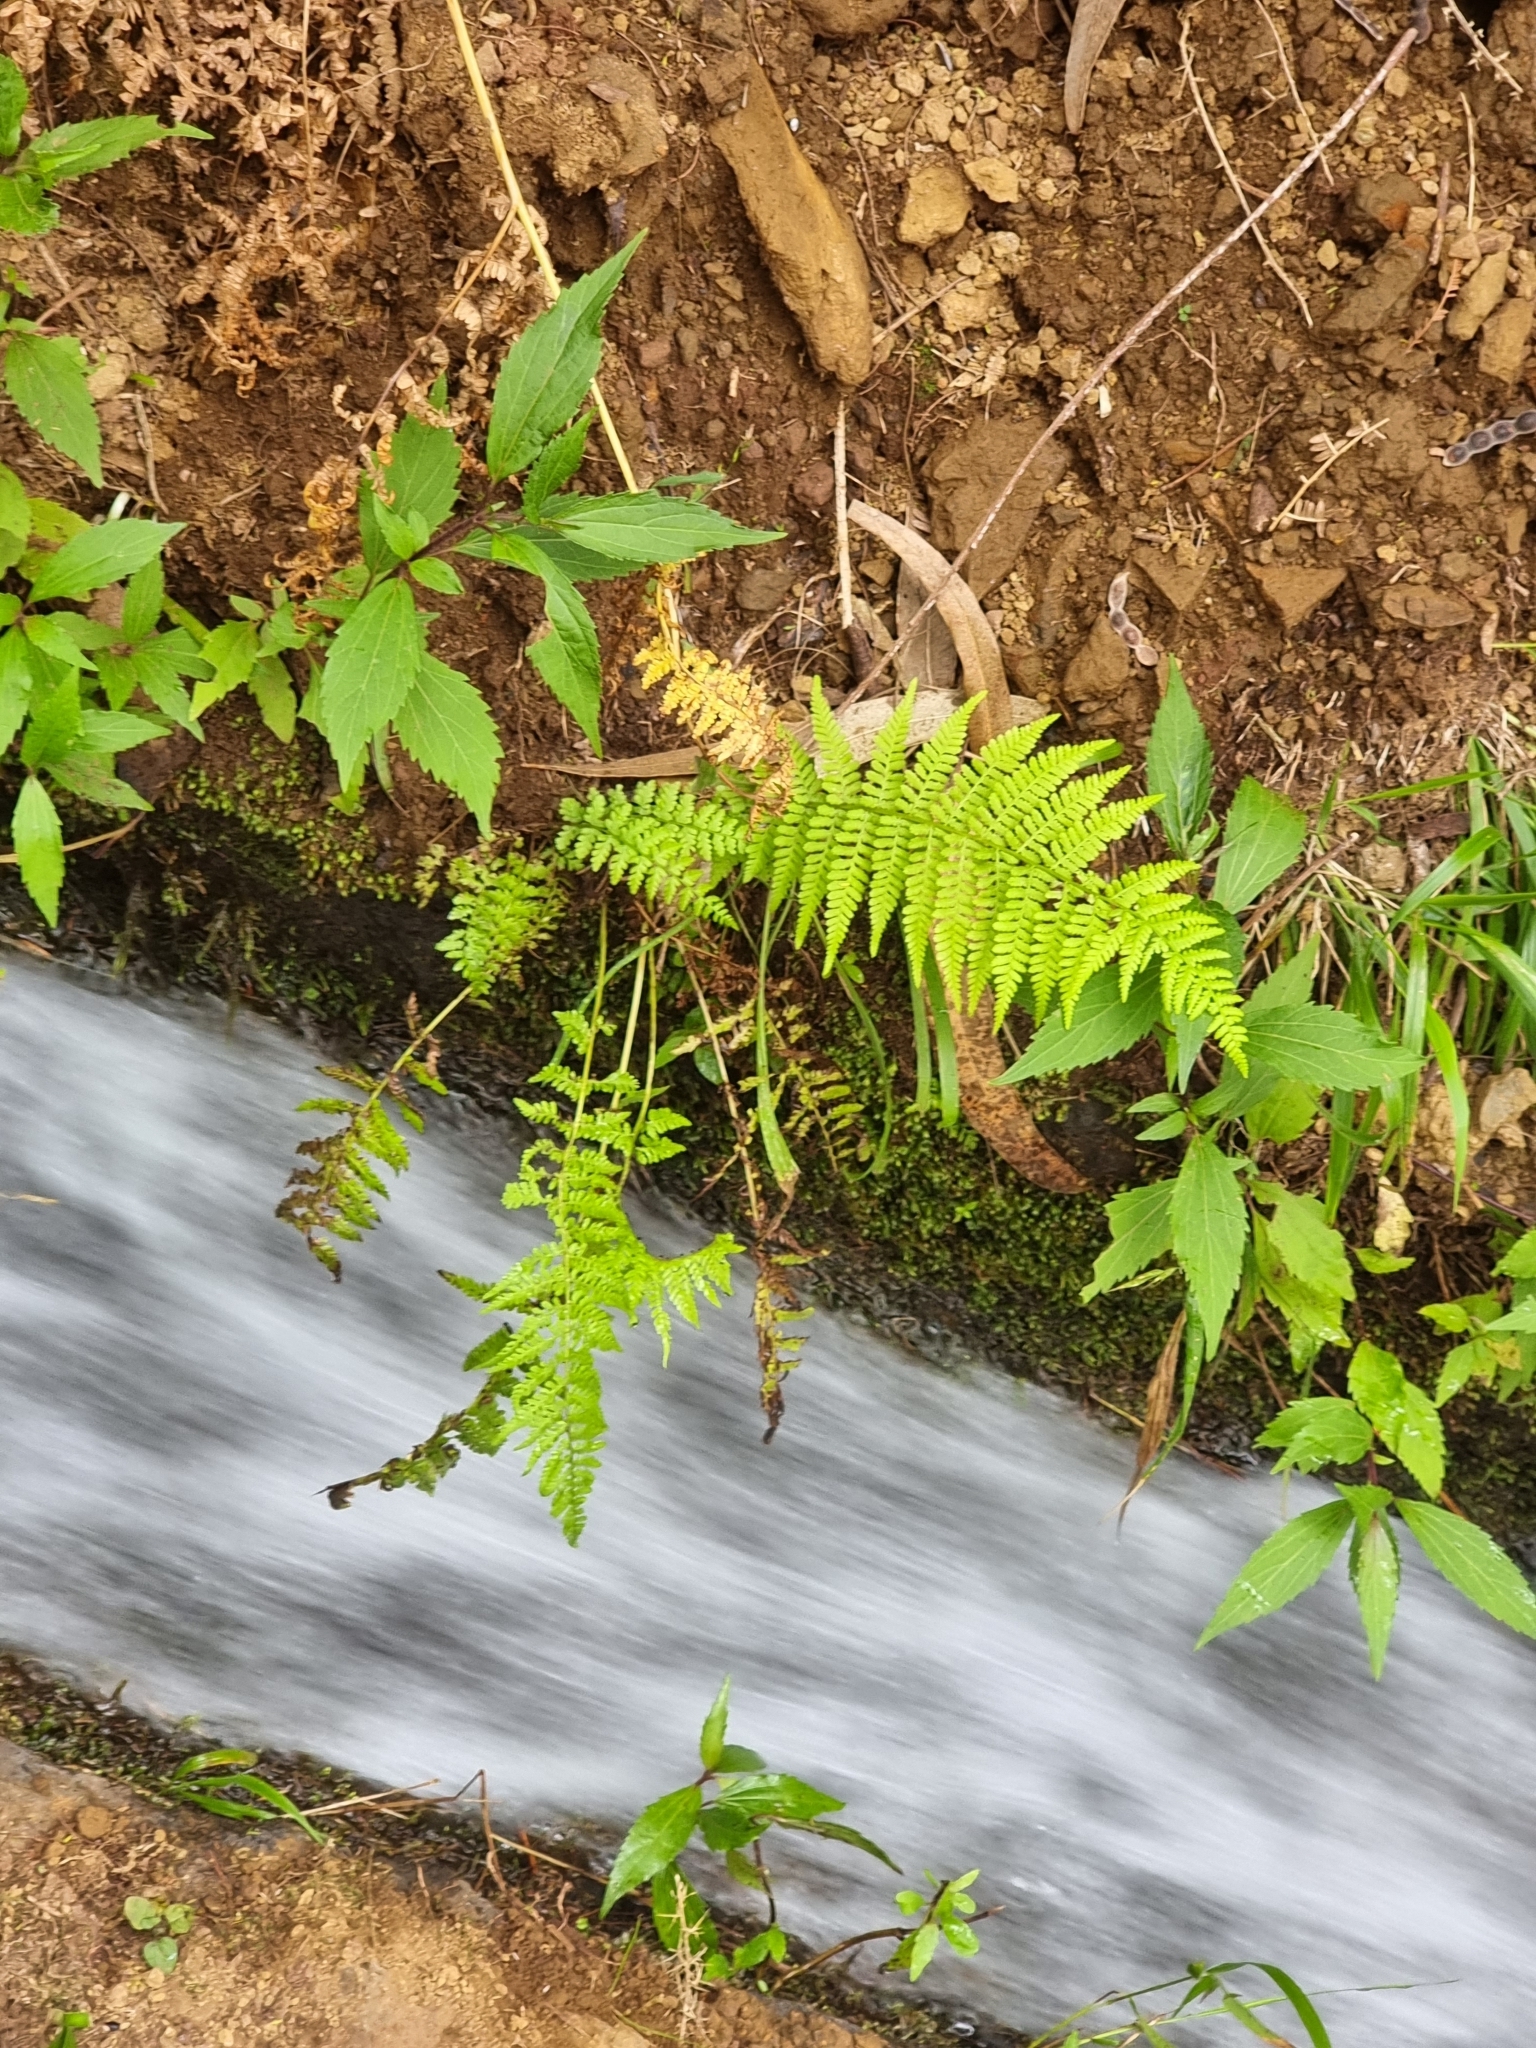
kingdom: Plantae
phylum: Tracheophyta
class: Polypodiopsida
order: Polypodiales
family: Athyriaceae
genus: Athyrium
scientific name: Athyrium filix-femina
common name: Lady fern
